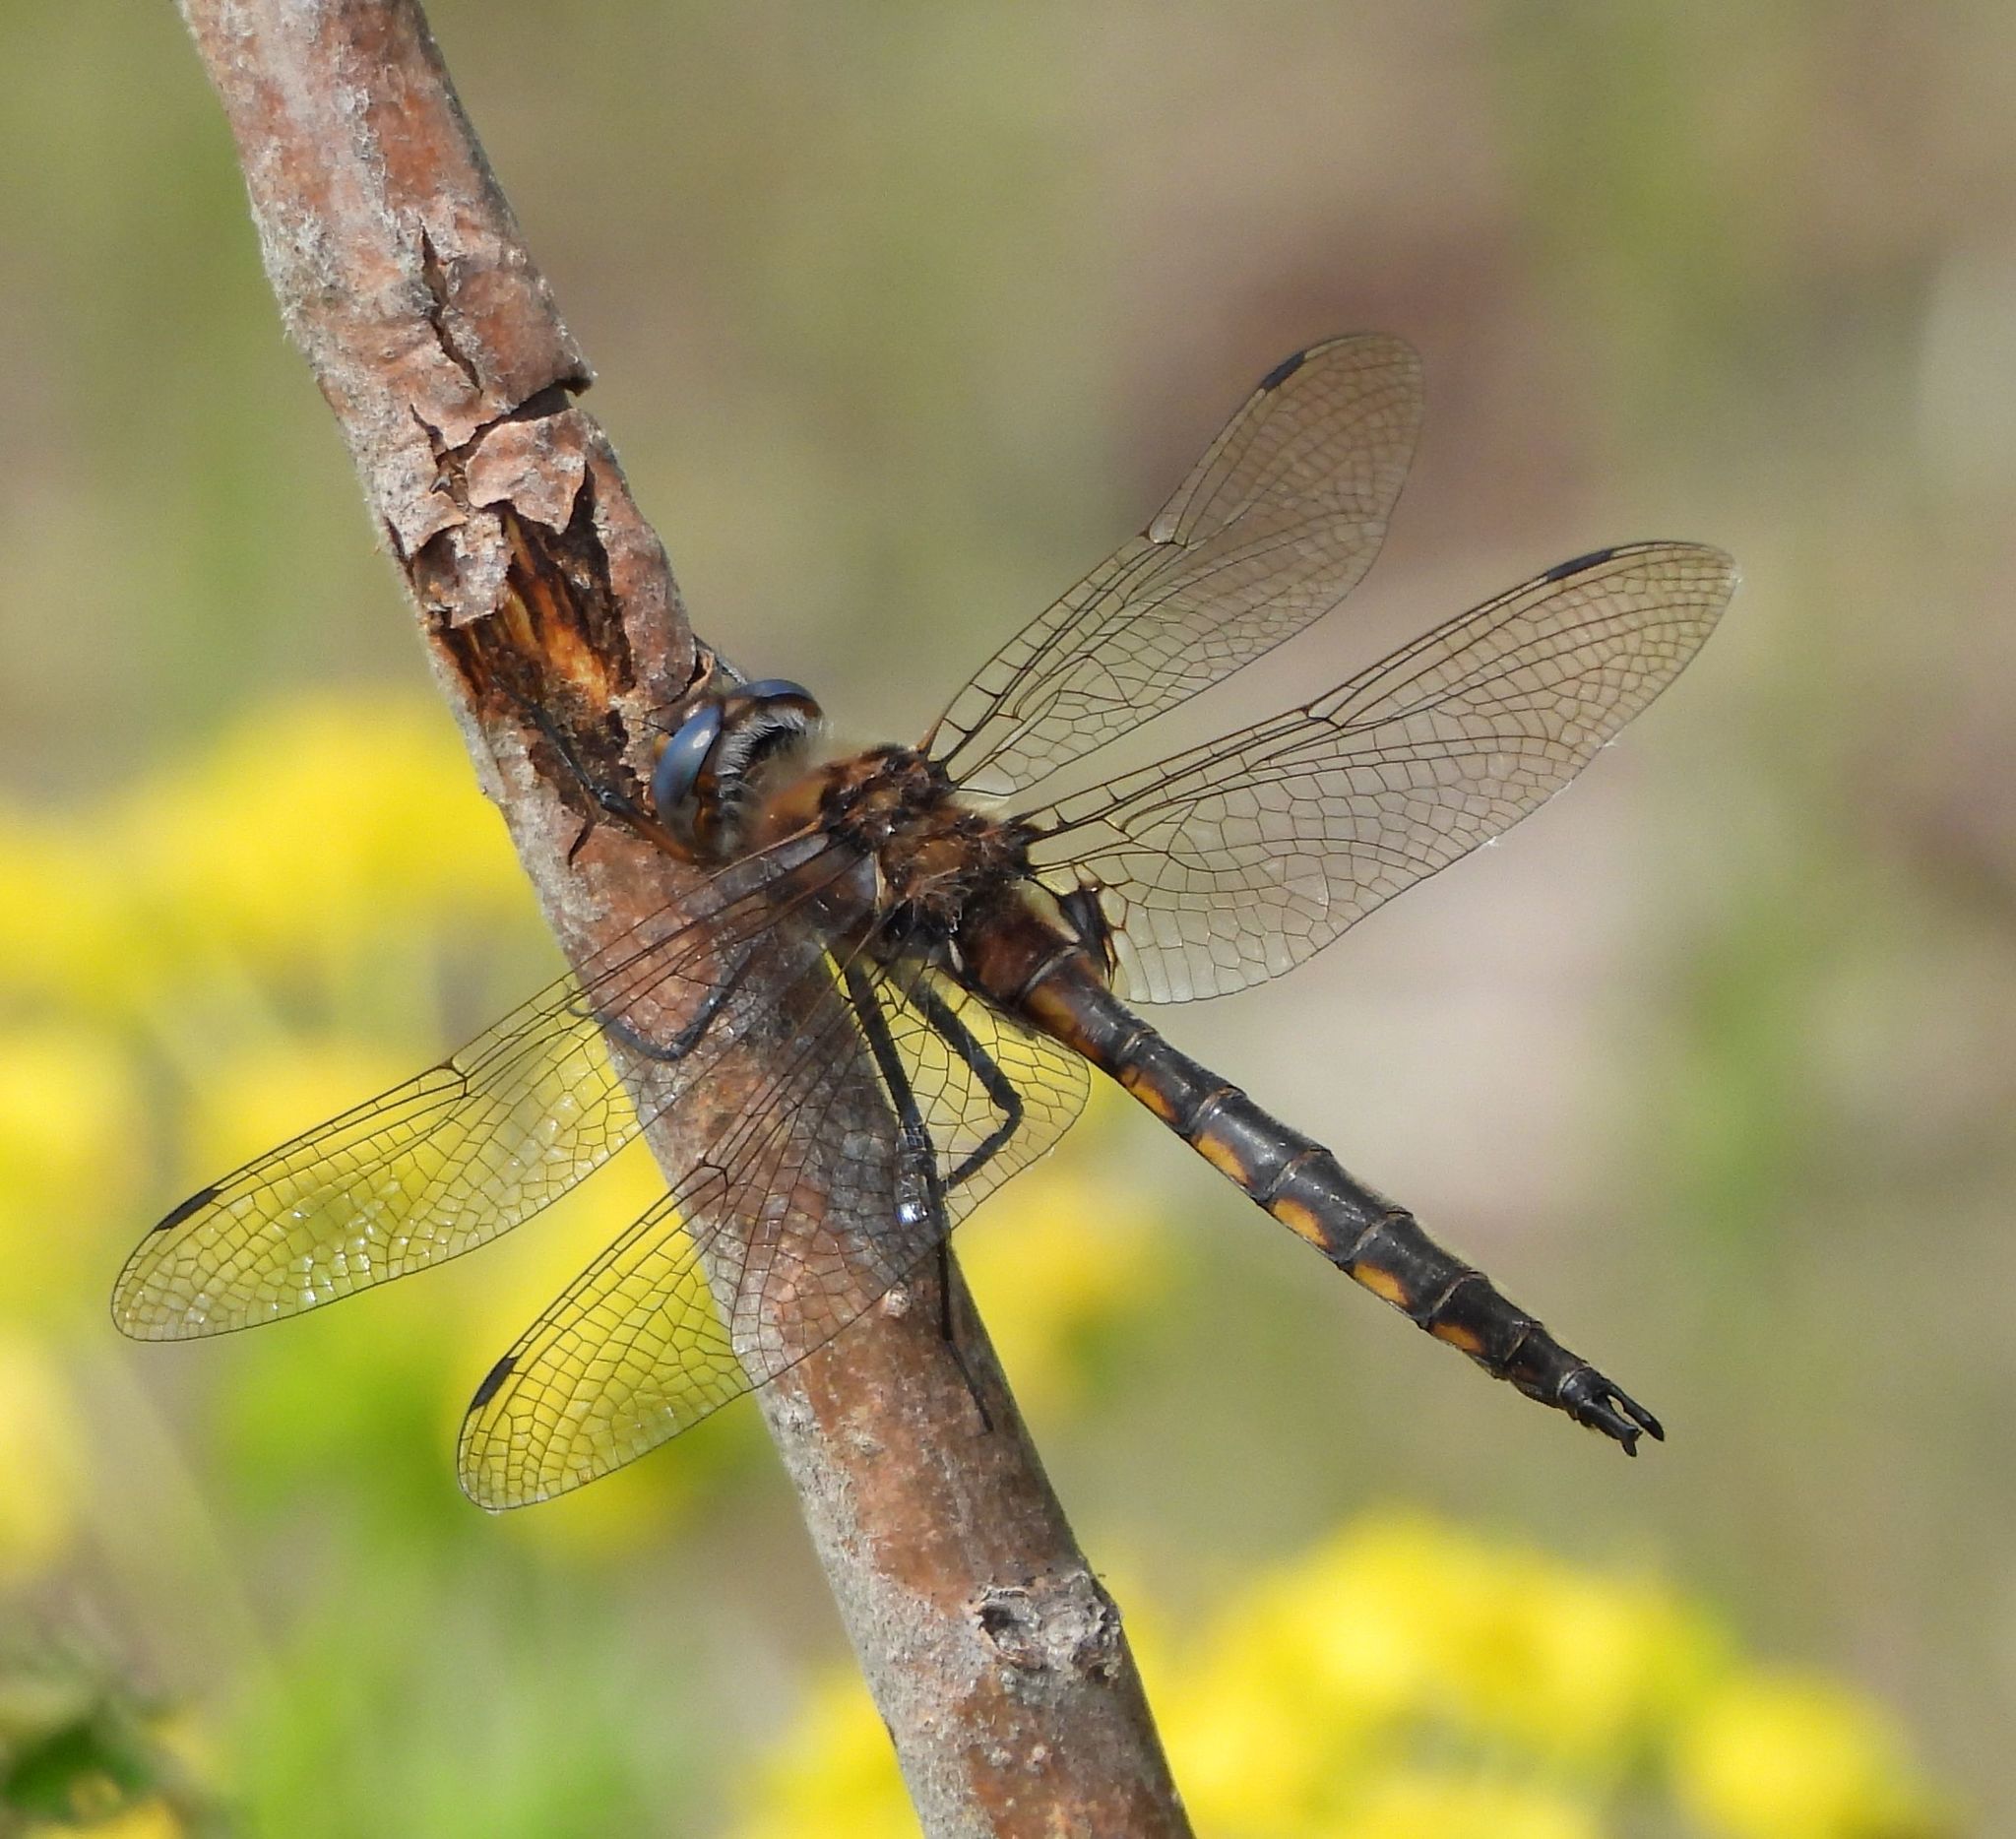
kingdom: Animalia
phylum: Arthropoda
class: Insecta
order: Odonata
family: Corduliidae
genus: Epitheca
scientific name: Epitheca canis
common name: Beaverpond baskettail
